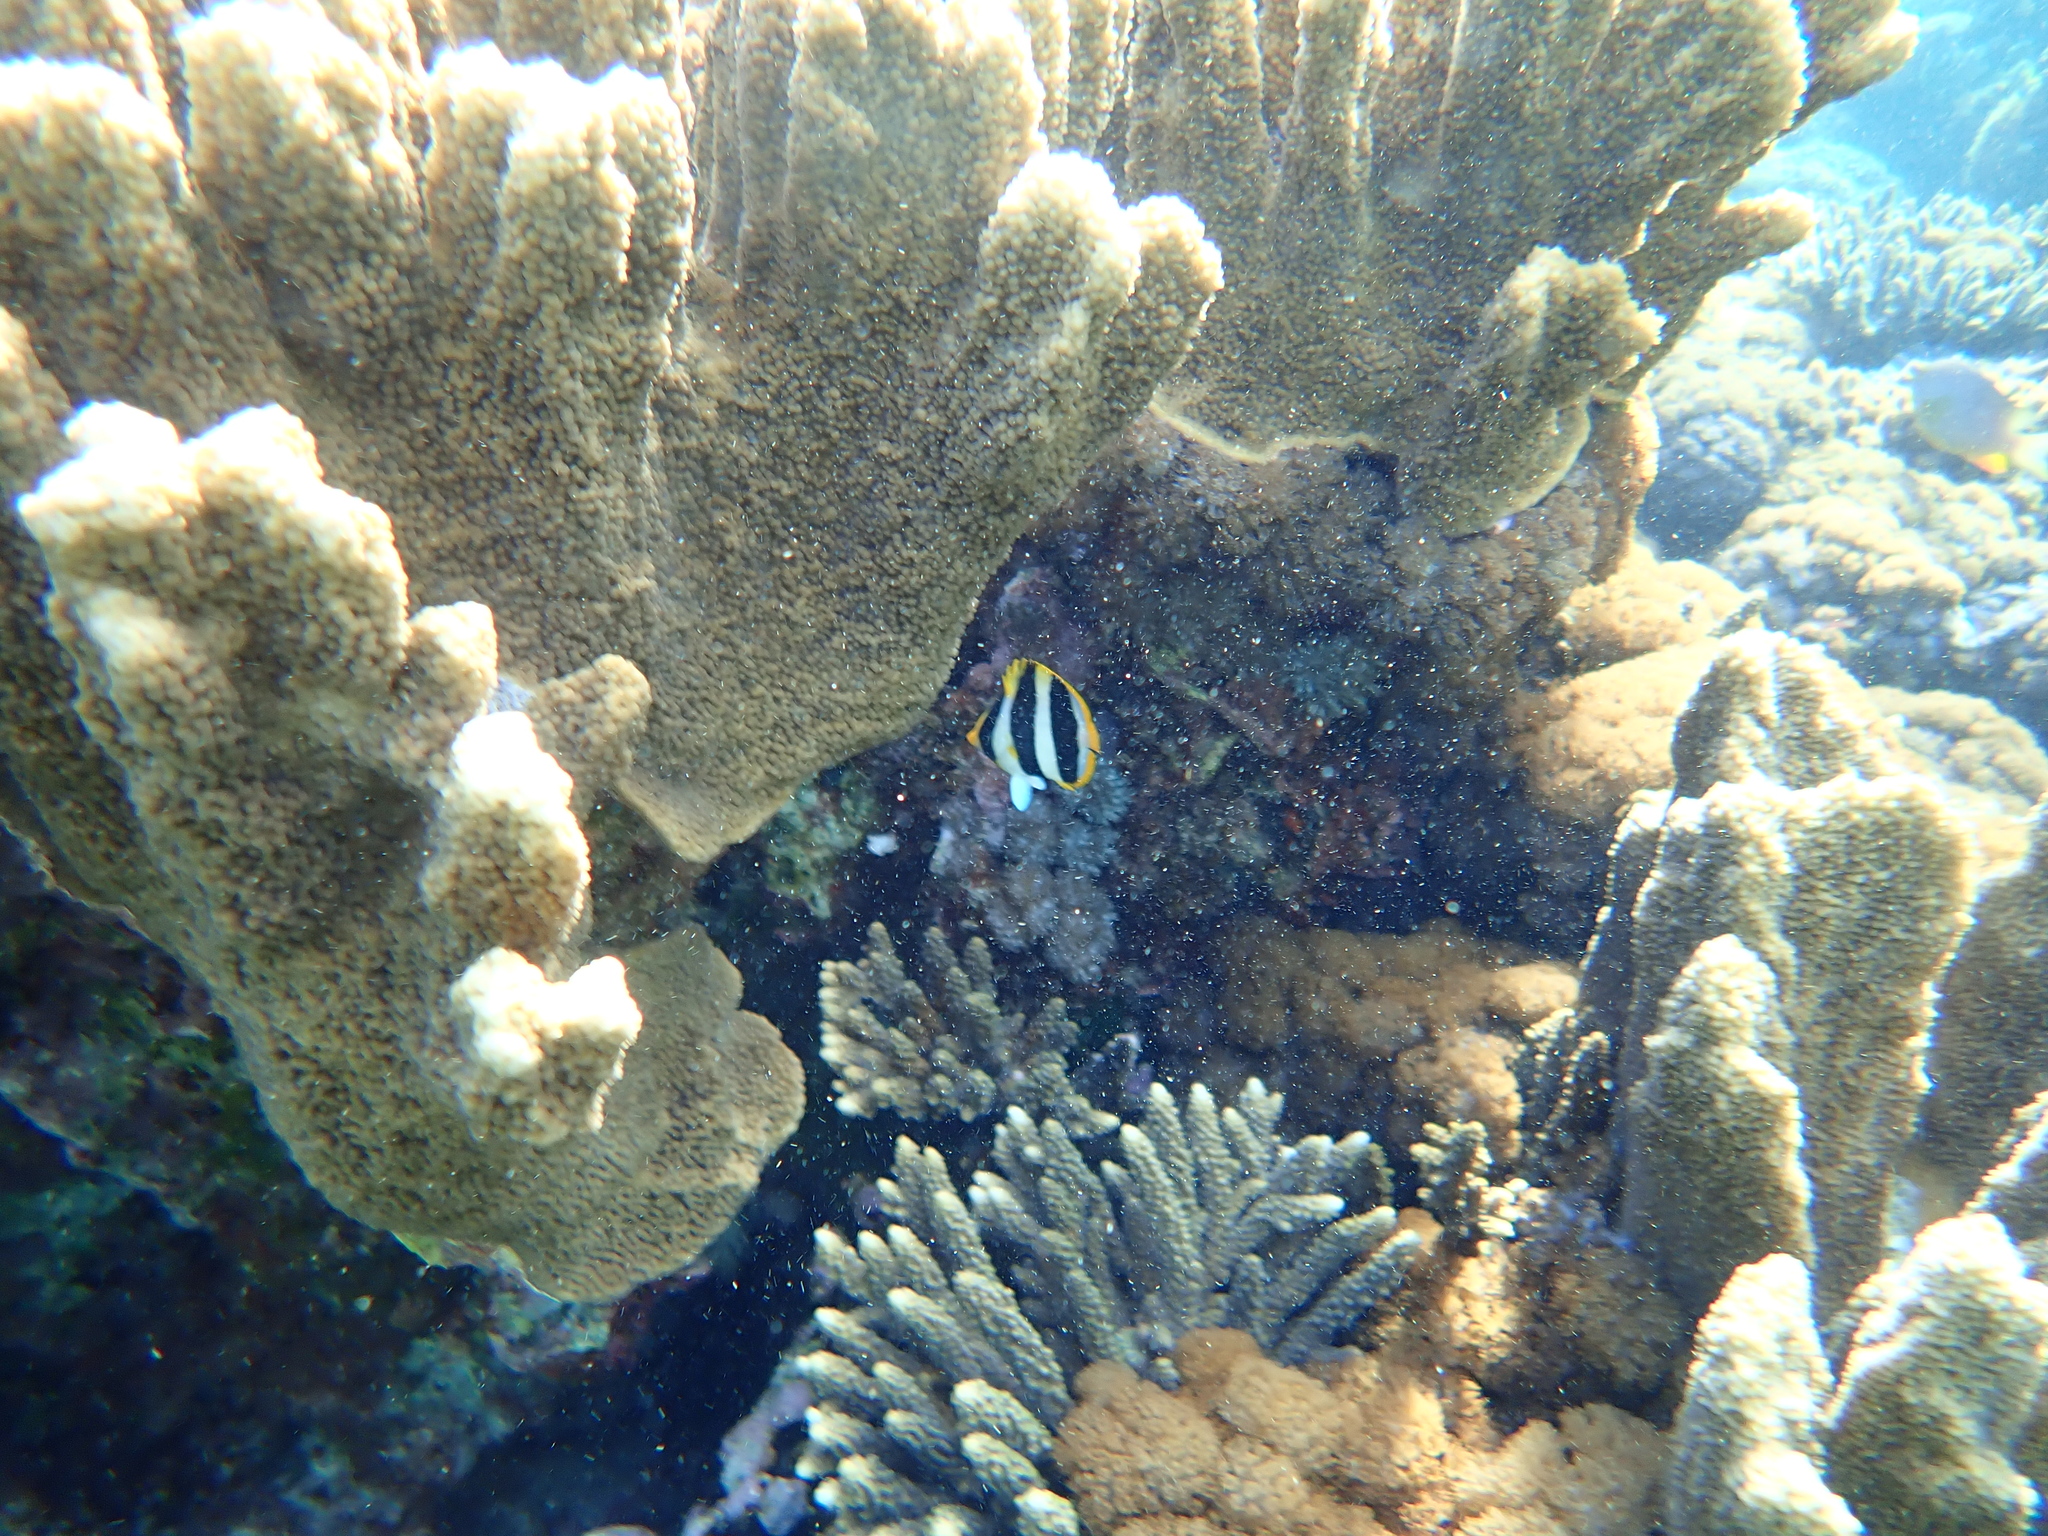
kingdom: Animalia
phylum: Chordata
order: Perciformes
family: Chaetodontidae
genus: Chaetodon
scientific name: Chaetodon tricinctus
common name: Three-striped butterflyfish
